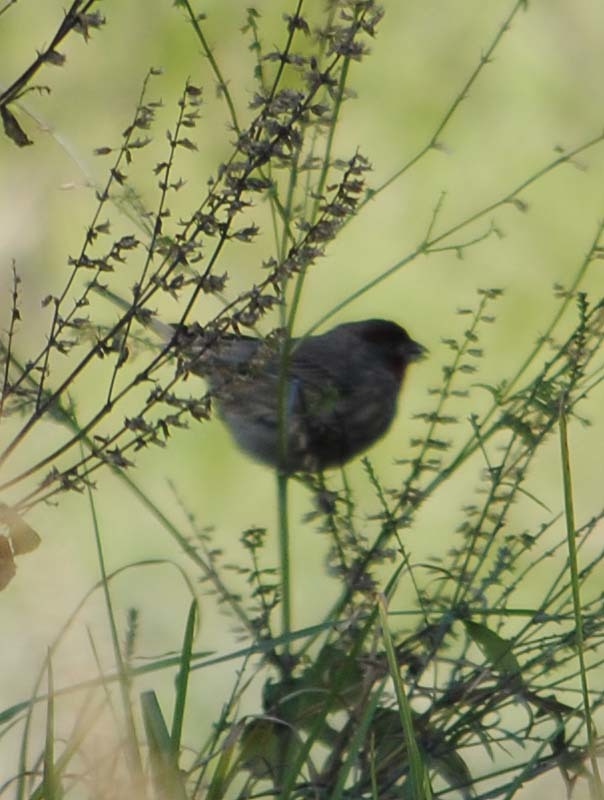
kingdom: Animalia
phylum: Chordata
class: Aves
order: Passeriformes
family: Fringillidae
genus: Haemorhous
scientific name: Haemorhous mexicanus
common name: House finch
